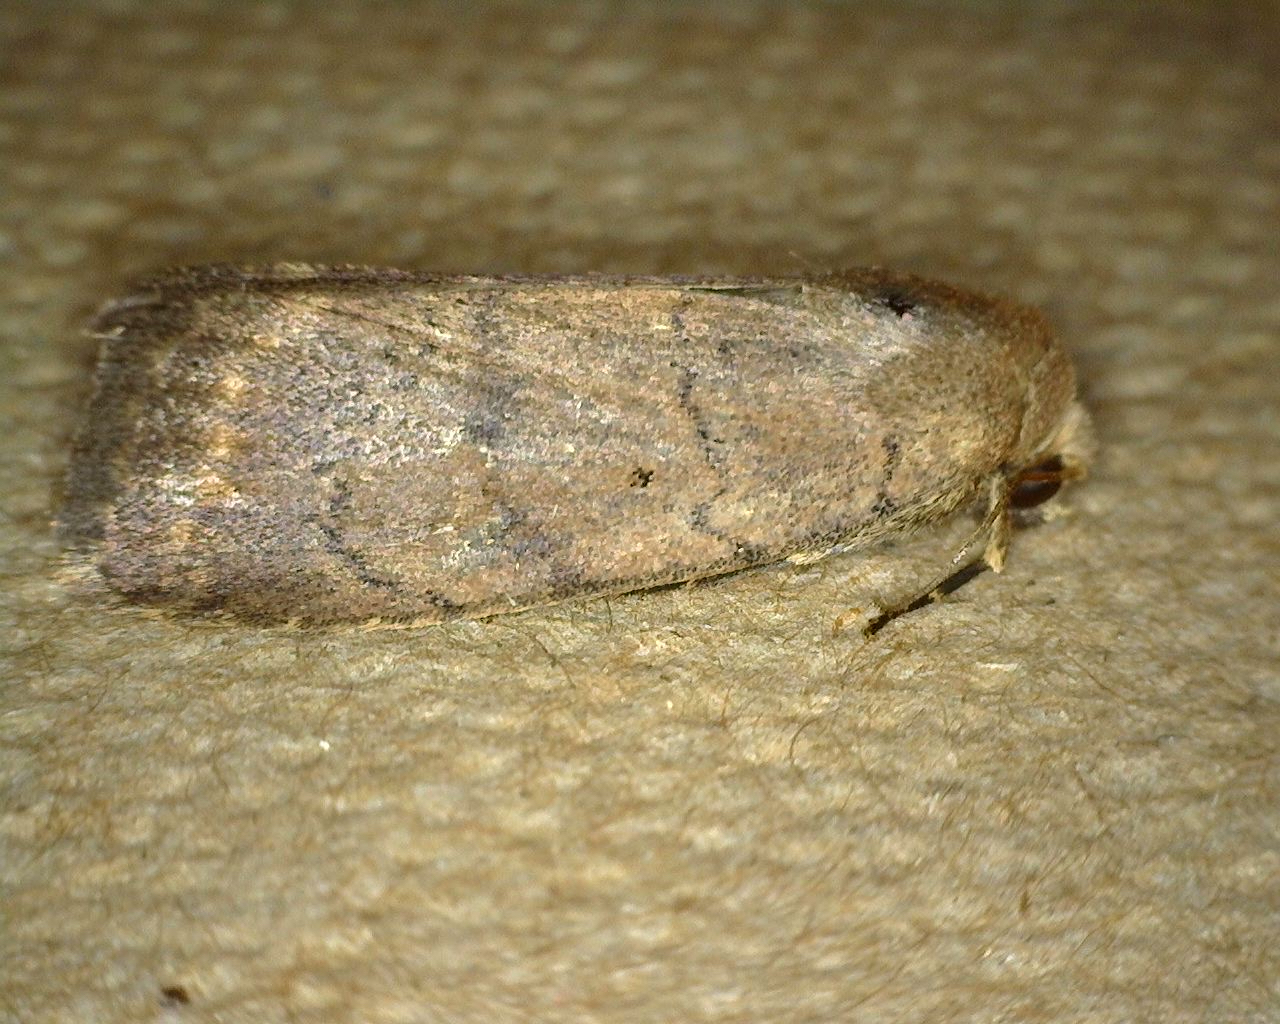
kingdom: Animalia
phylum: Arthropoda
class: Insecta
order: Lepidoptera
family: Noctuidae
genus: Athetis
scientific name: Athetis tarda
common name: Slowpoke moth
